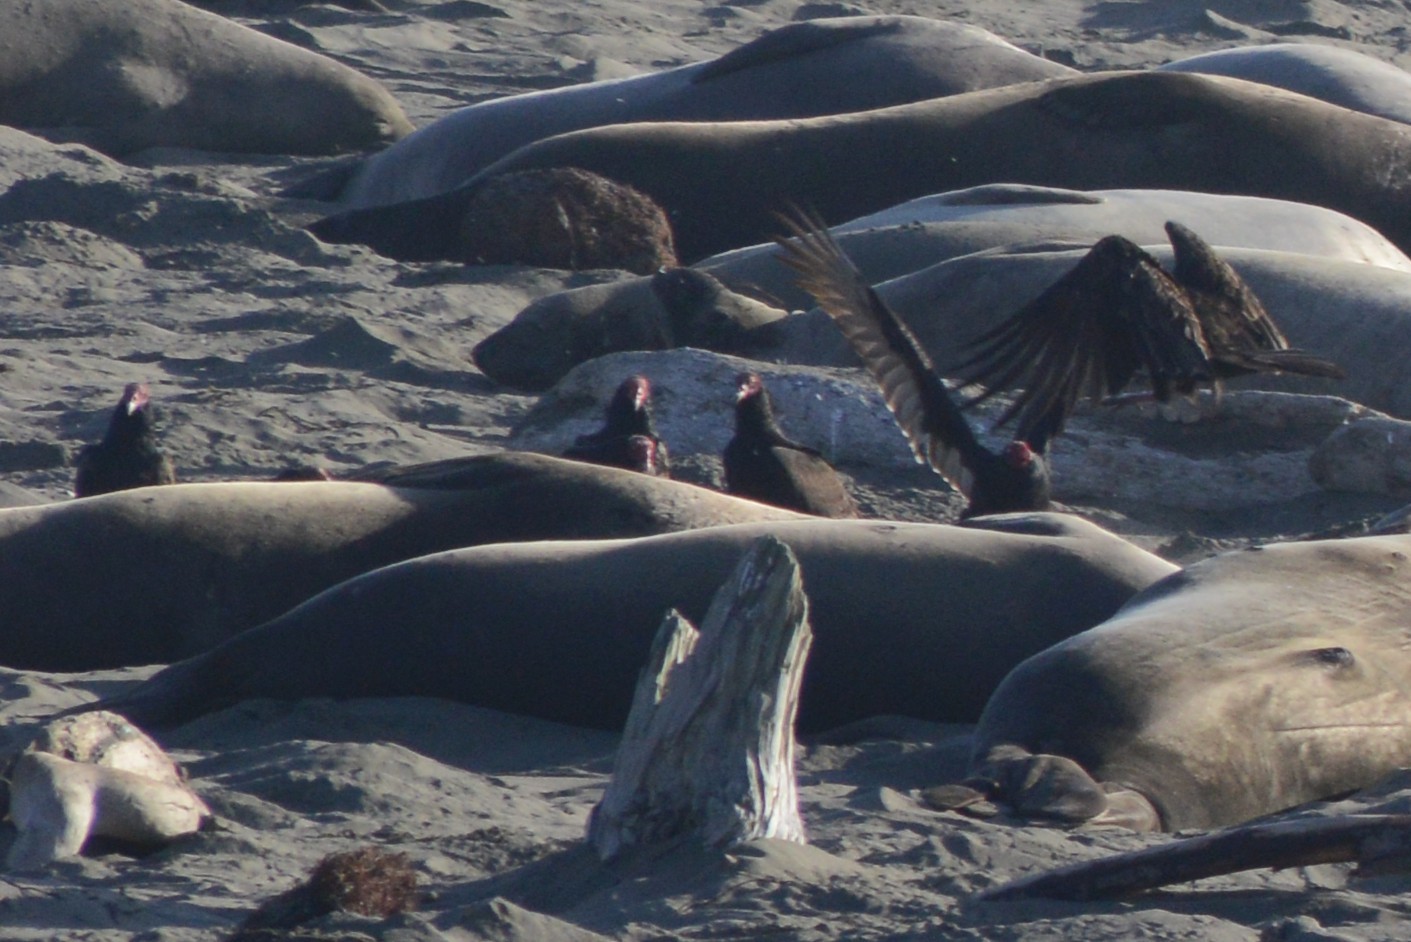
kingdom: Animalia
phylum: Chordata
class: Aves
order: Accipitriformes
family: Cathartidae
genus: Cathartes
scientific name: Cathartes aura
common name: Turkey vulture
